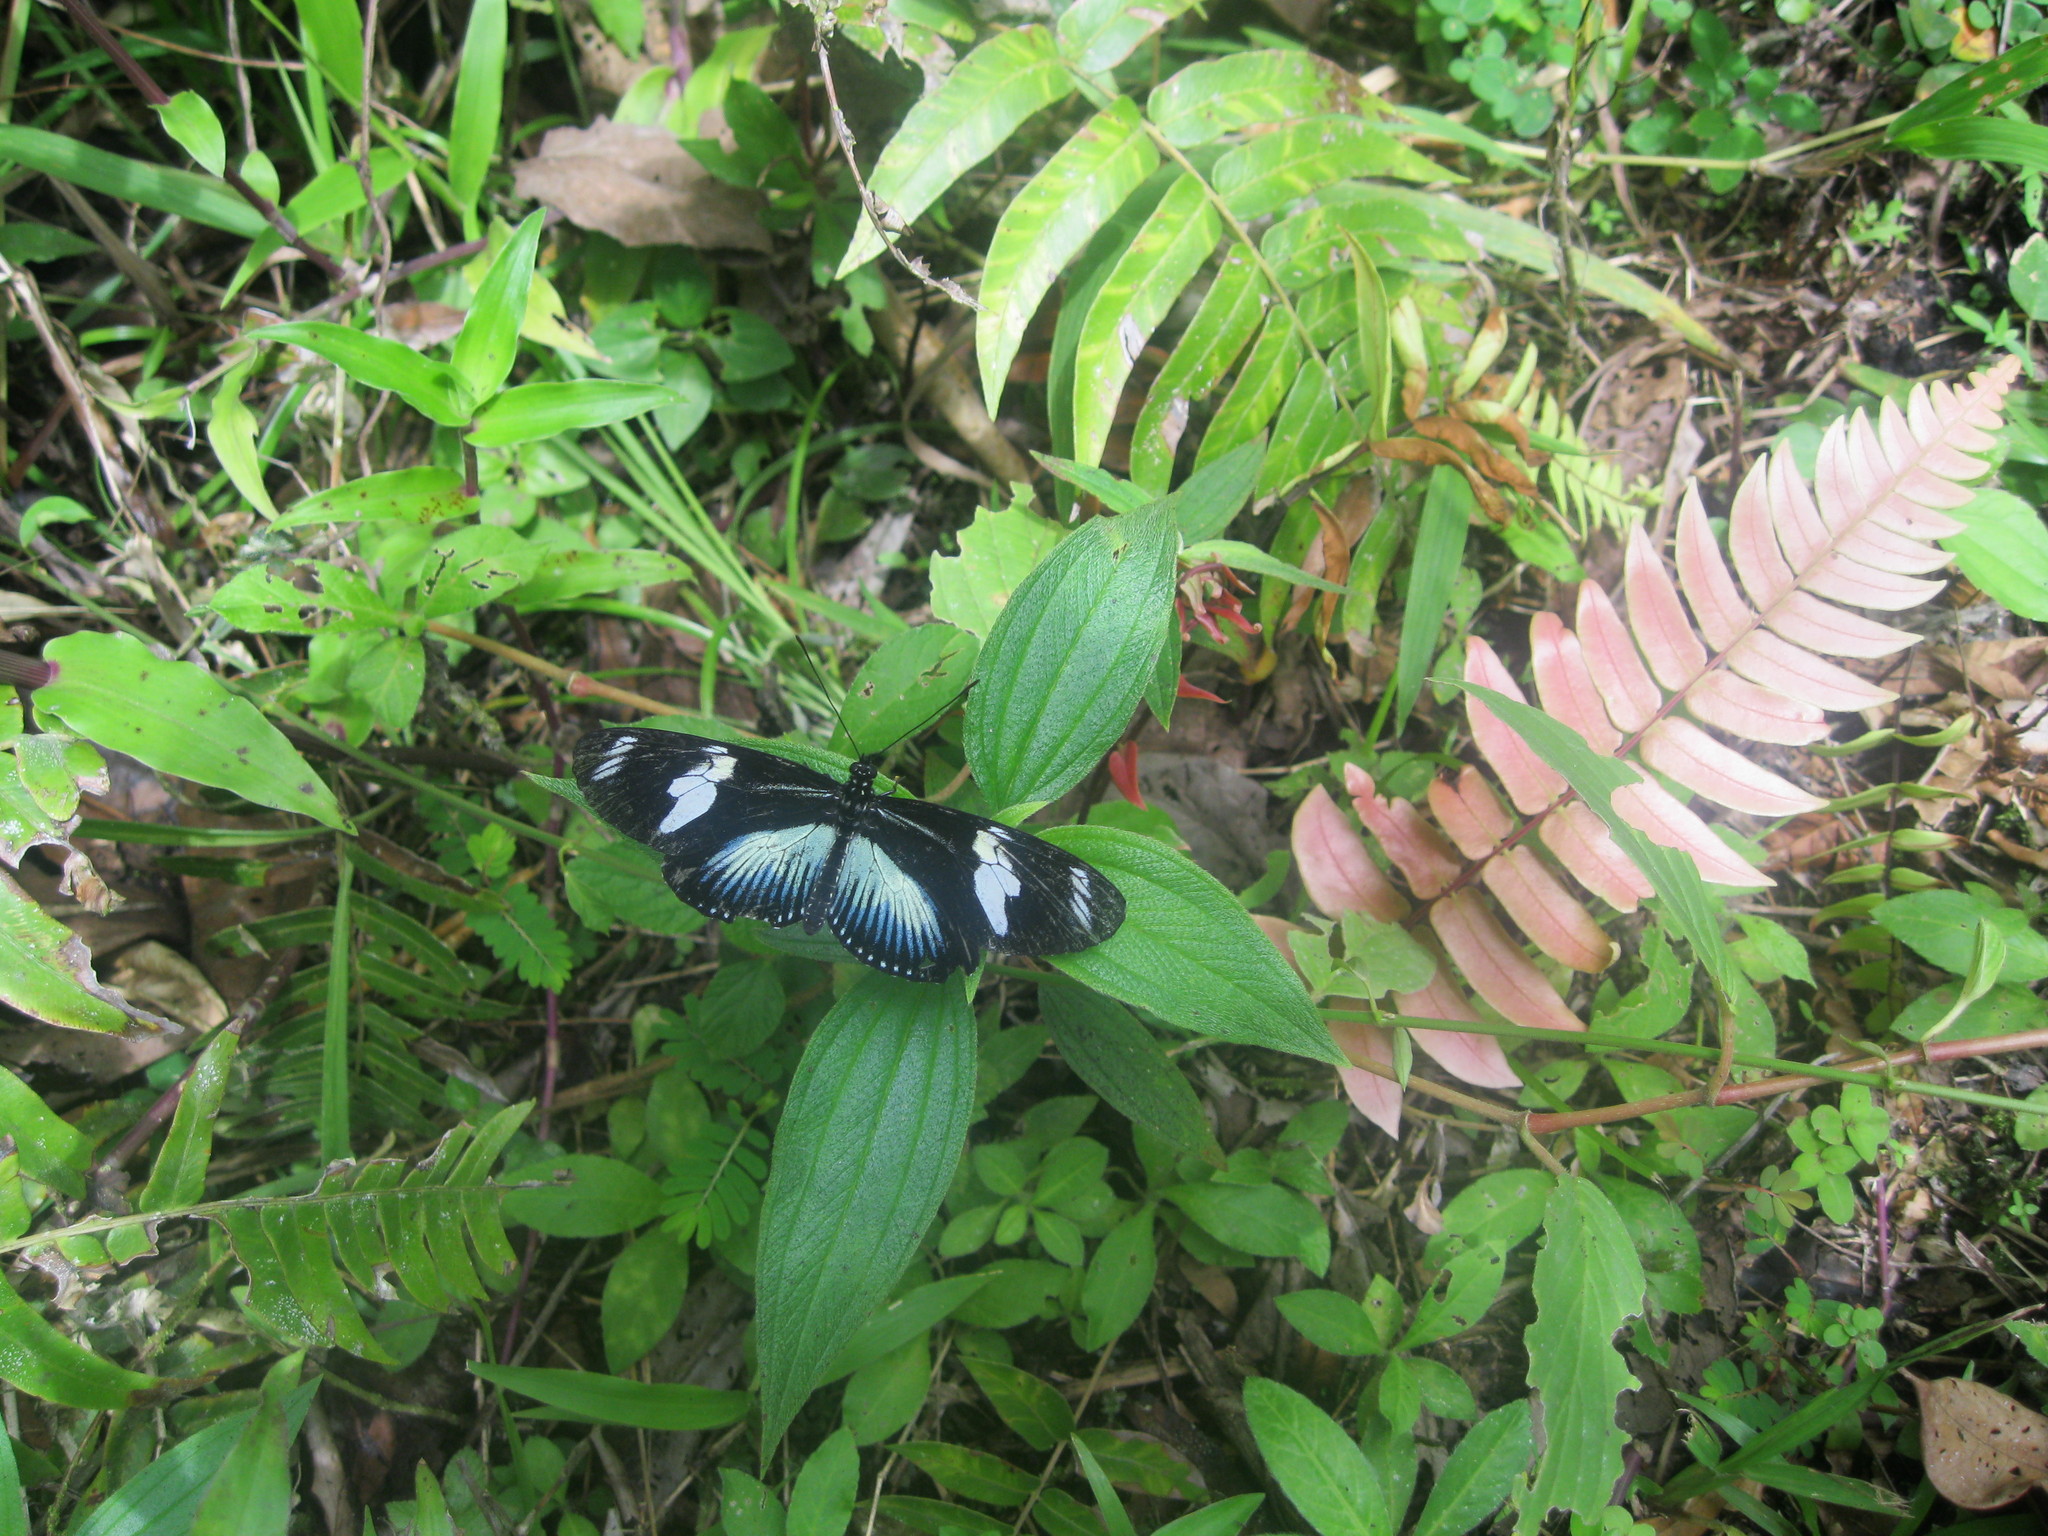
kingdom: Animalia
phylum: Arthropoda
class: Insecta
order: Lepidoptera
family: Nymphalidae
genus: Heliconius
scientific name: Heliconius doris
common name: Doris longwing
